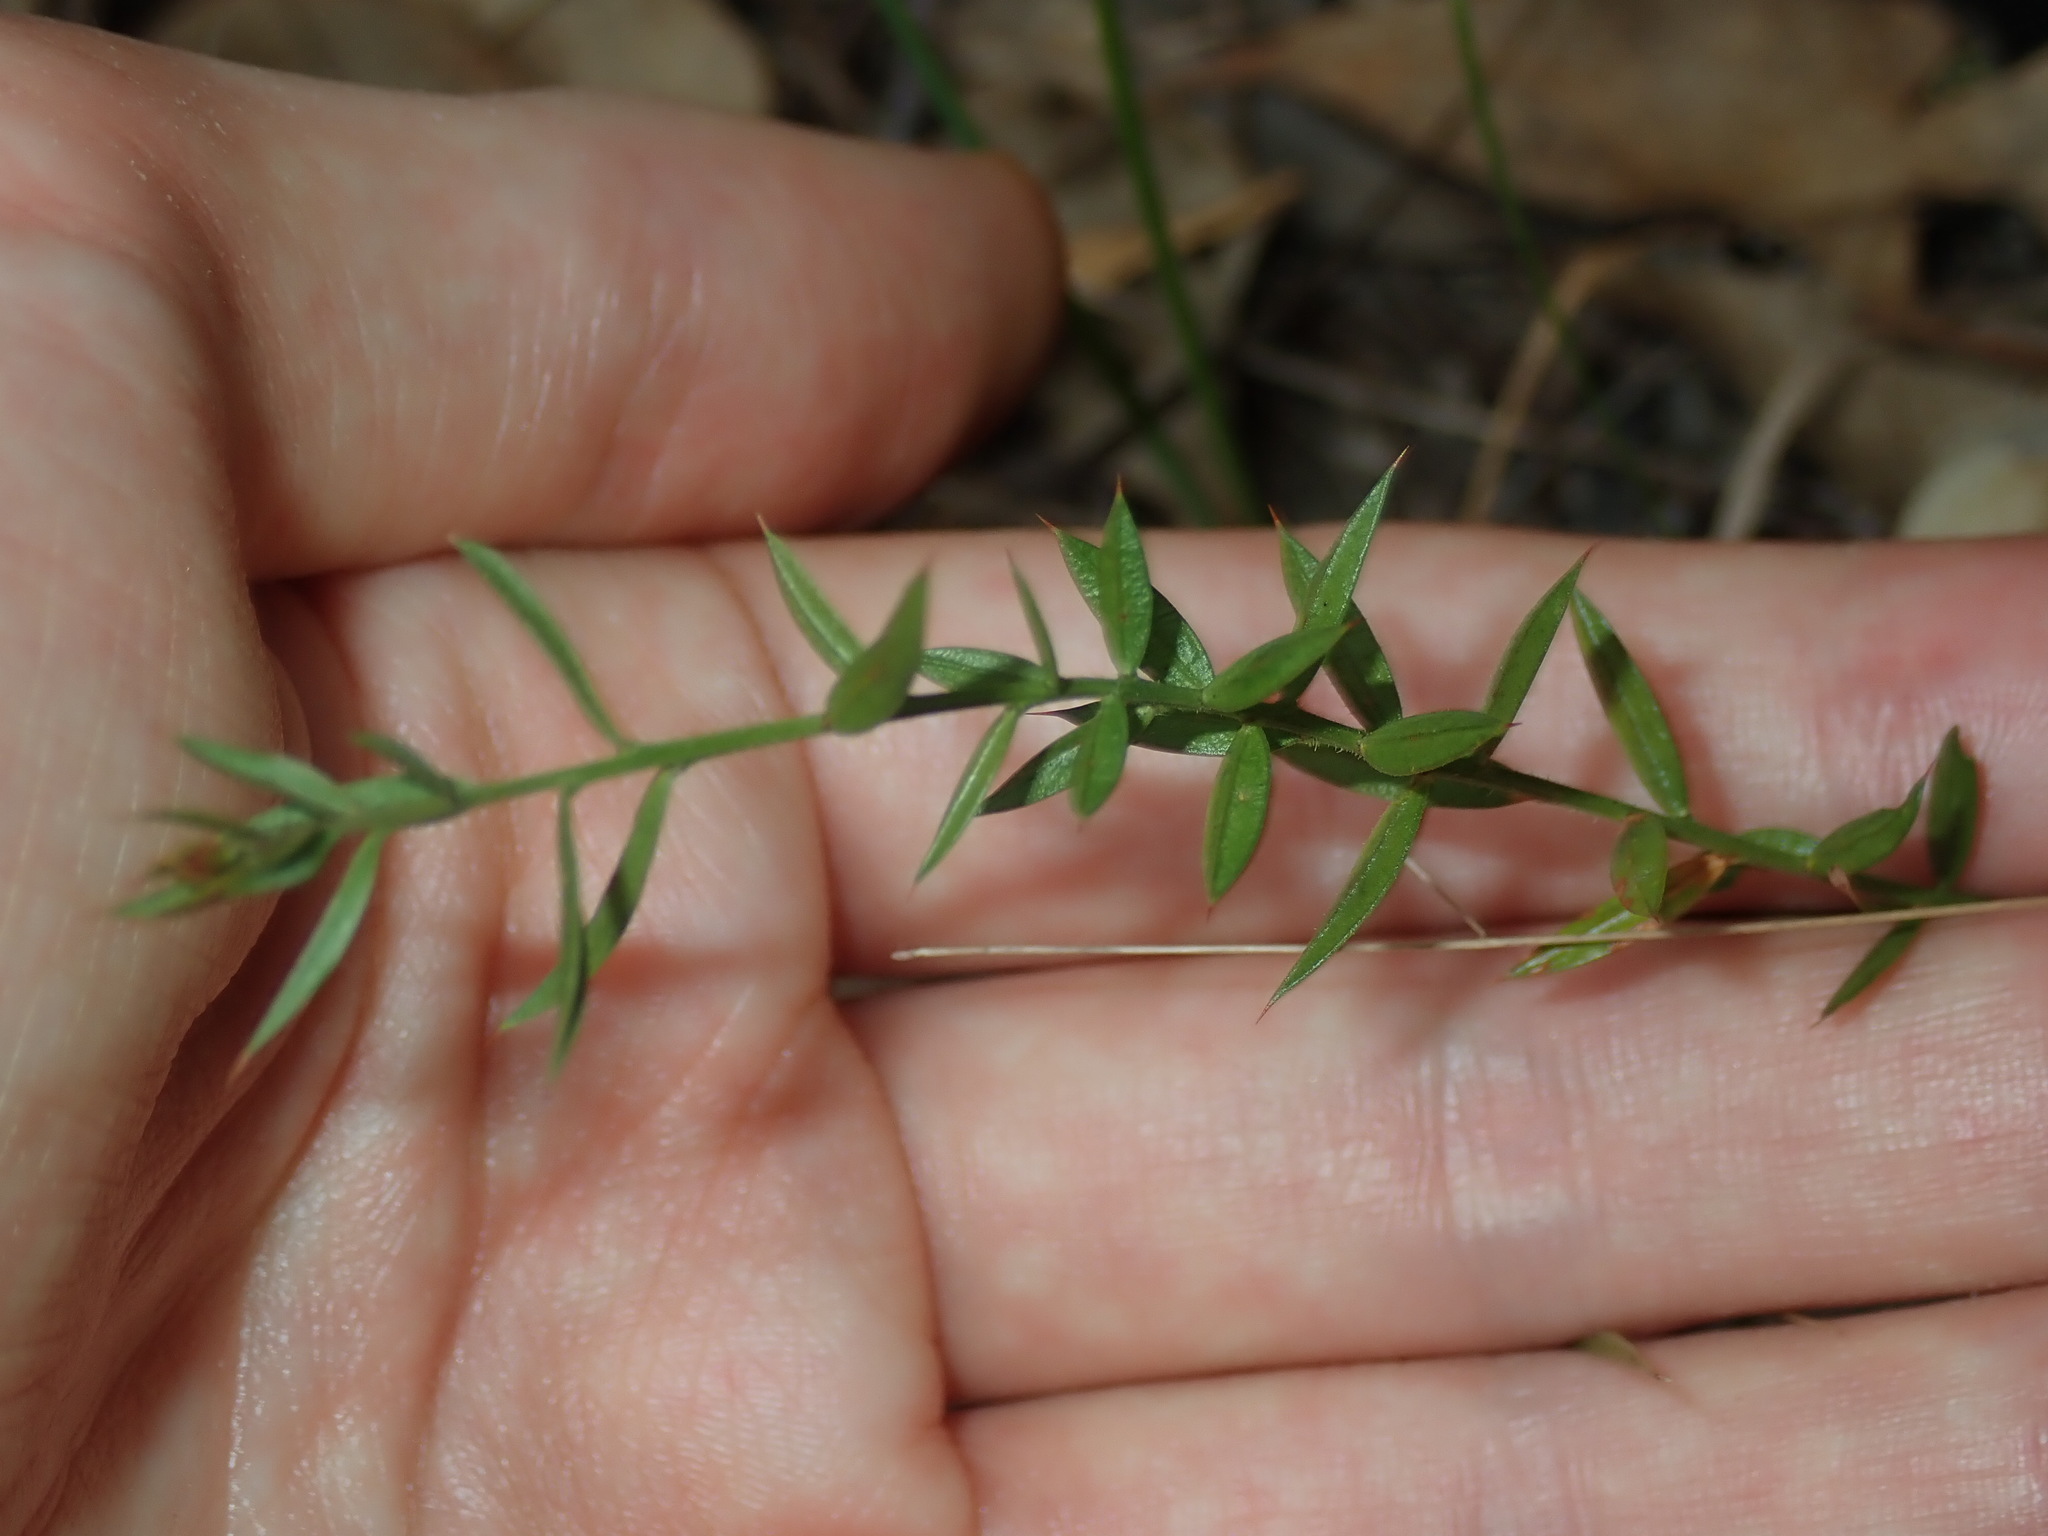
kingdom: Plantae
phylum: Tracheophyta
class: Magnoliopsida
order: Fabales
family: Fabaceae
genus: Daviesia
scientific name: Daviesia ulicifolia
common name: Gorse bitter-pea
